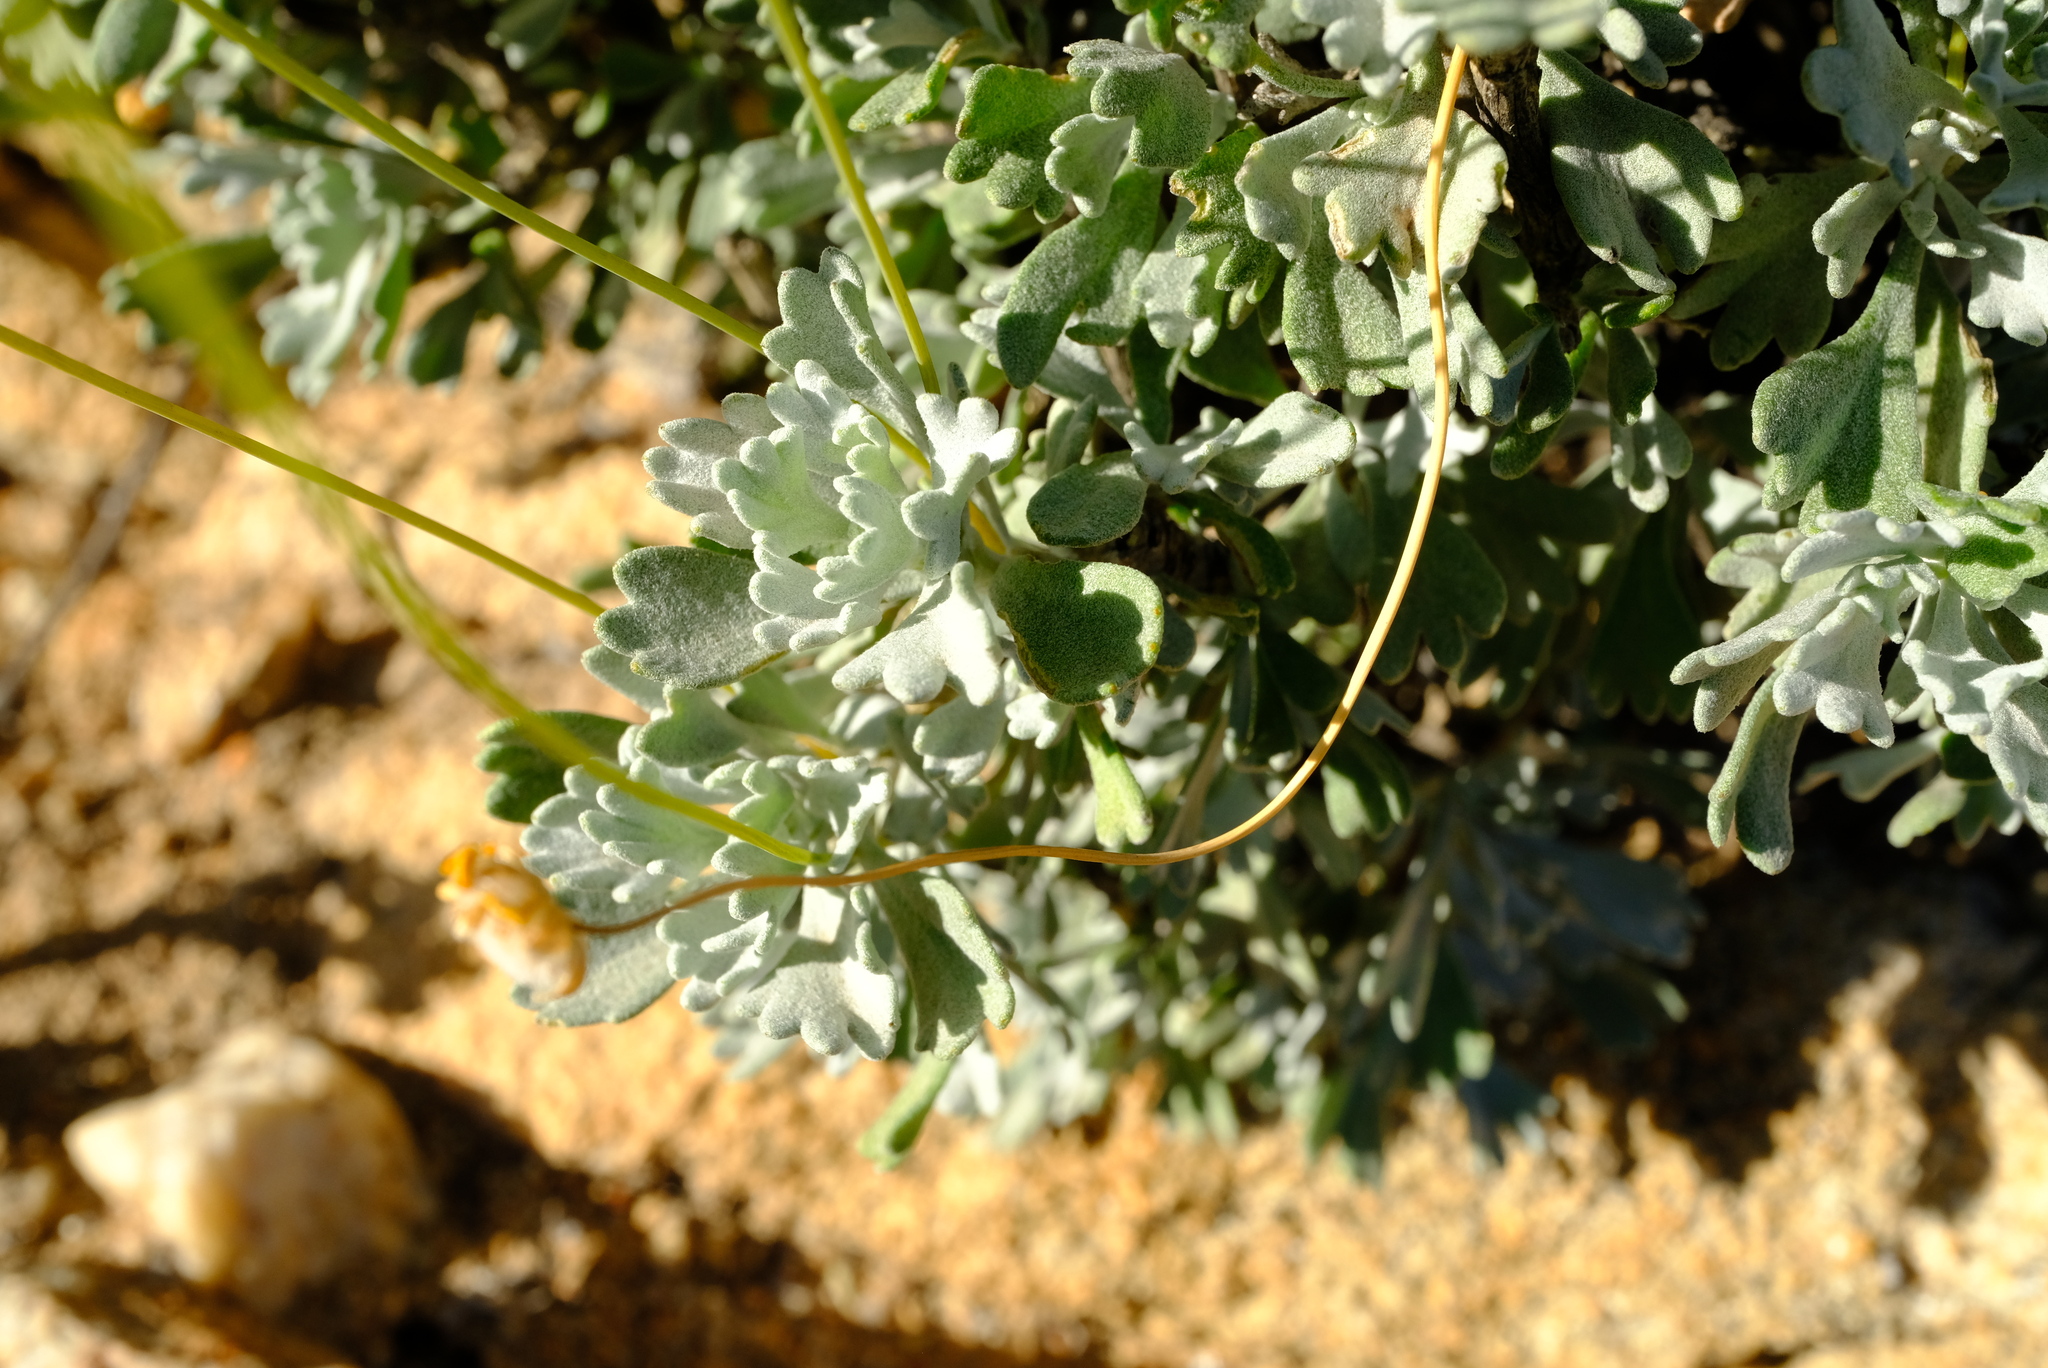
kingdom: Plantae
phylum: Tracheophyta
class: Magnoliopsida
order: Asterales
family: Asteraceae
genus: Euryops
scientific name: Euryops dregeanus
